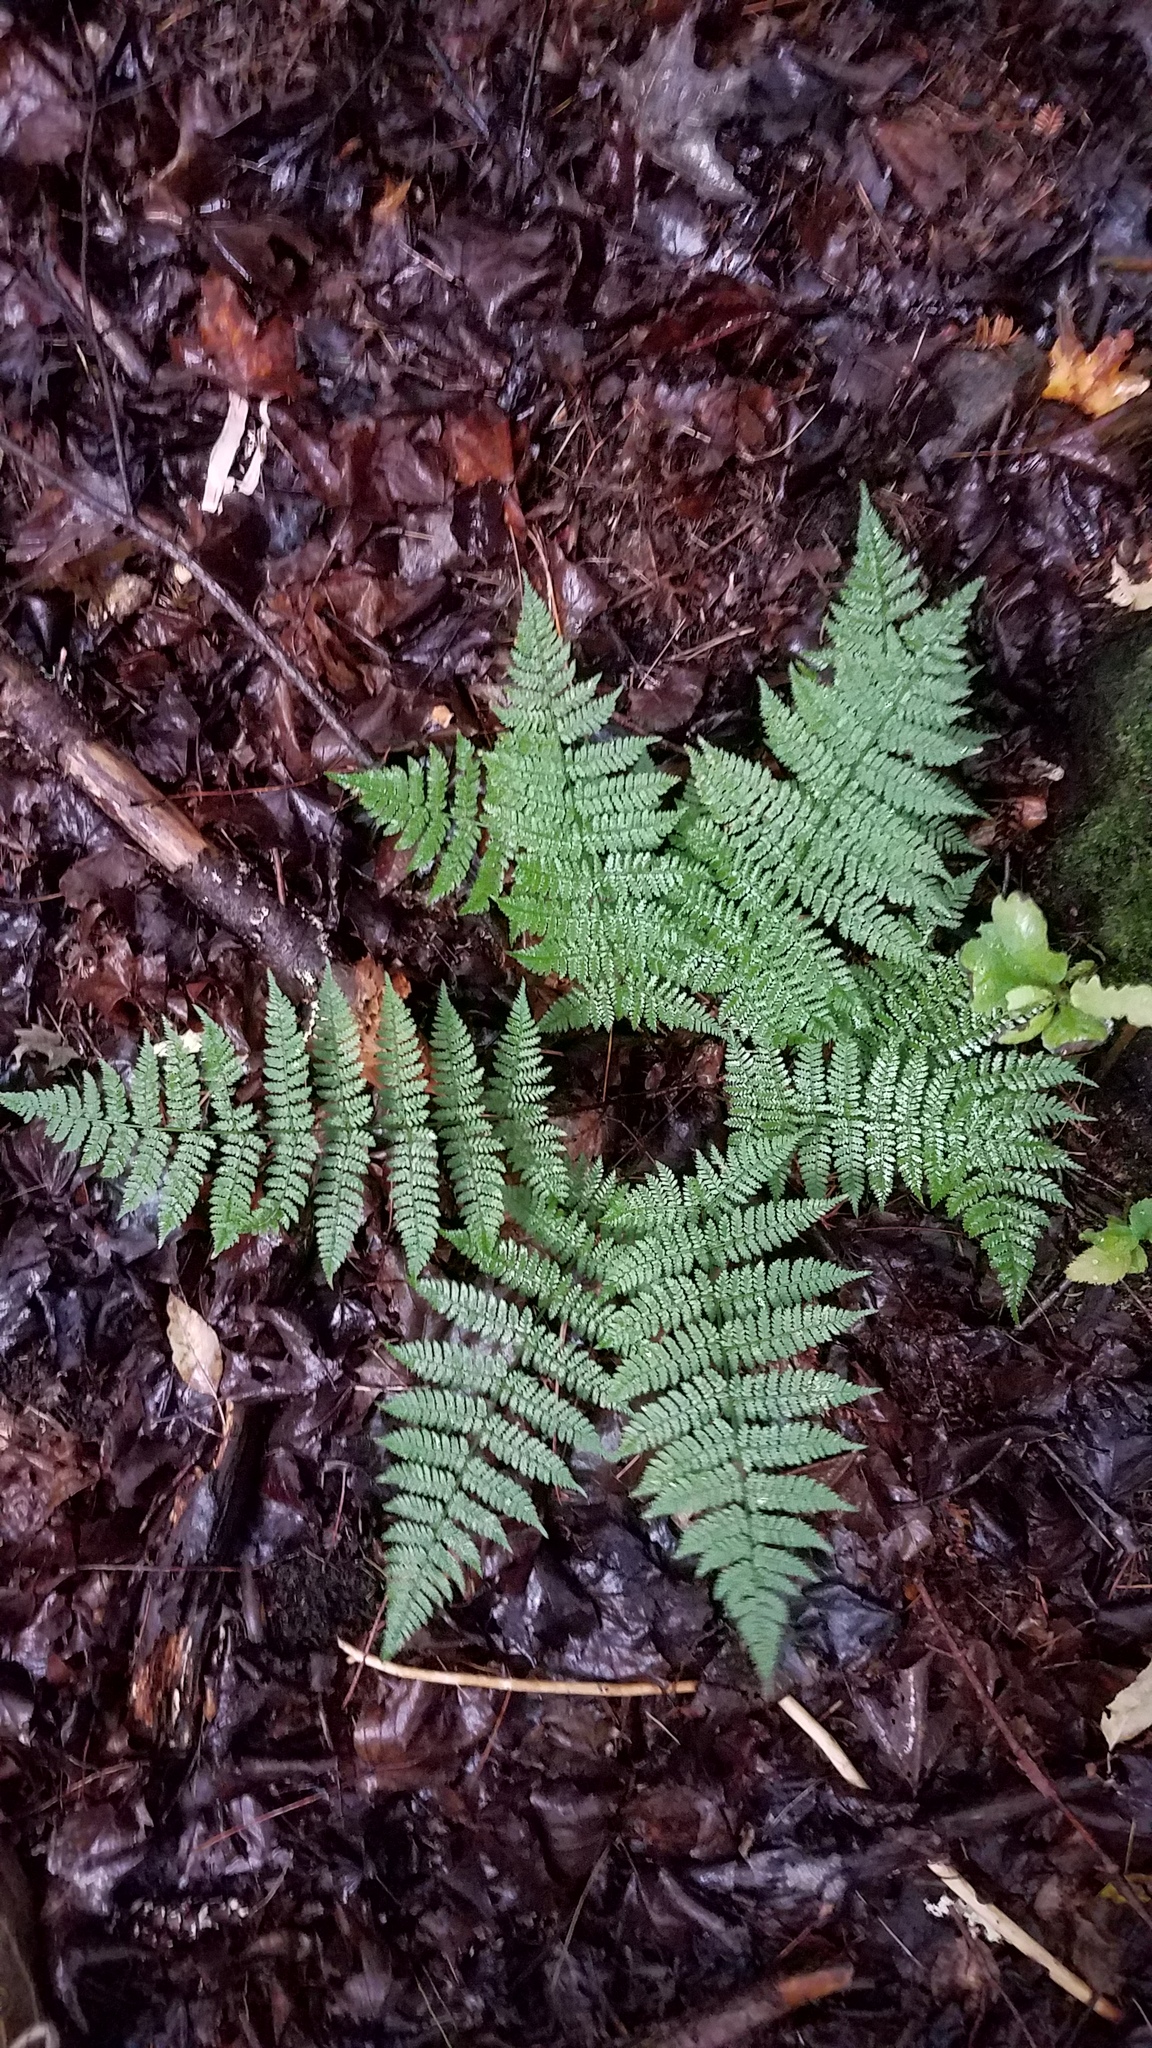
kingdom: Plantae
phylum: Tracheophyta
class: Polypodiopsida
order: Polypodiales
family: Dryopteridaceae
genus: Dryopteris
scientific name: Dryopteris intermedia
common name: Evergreen wood fern
